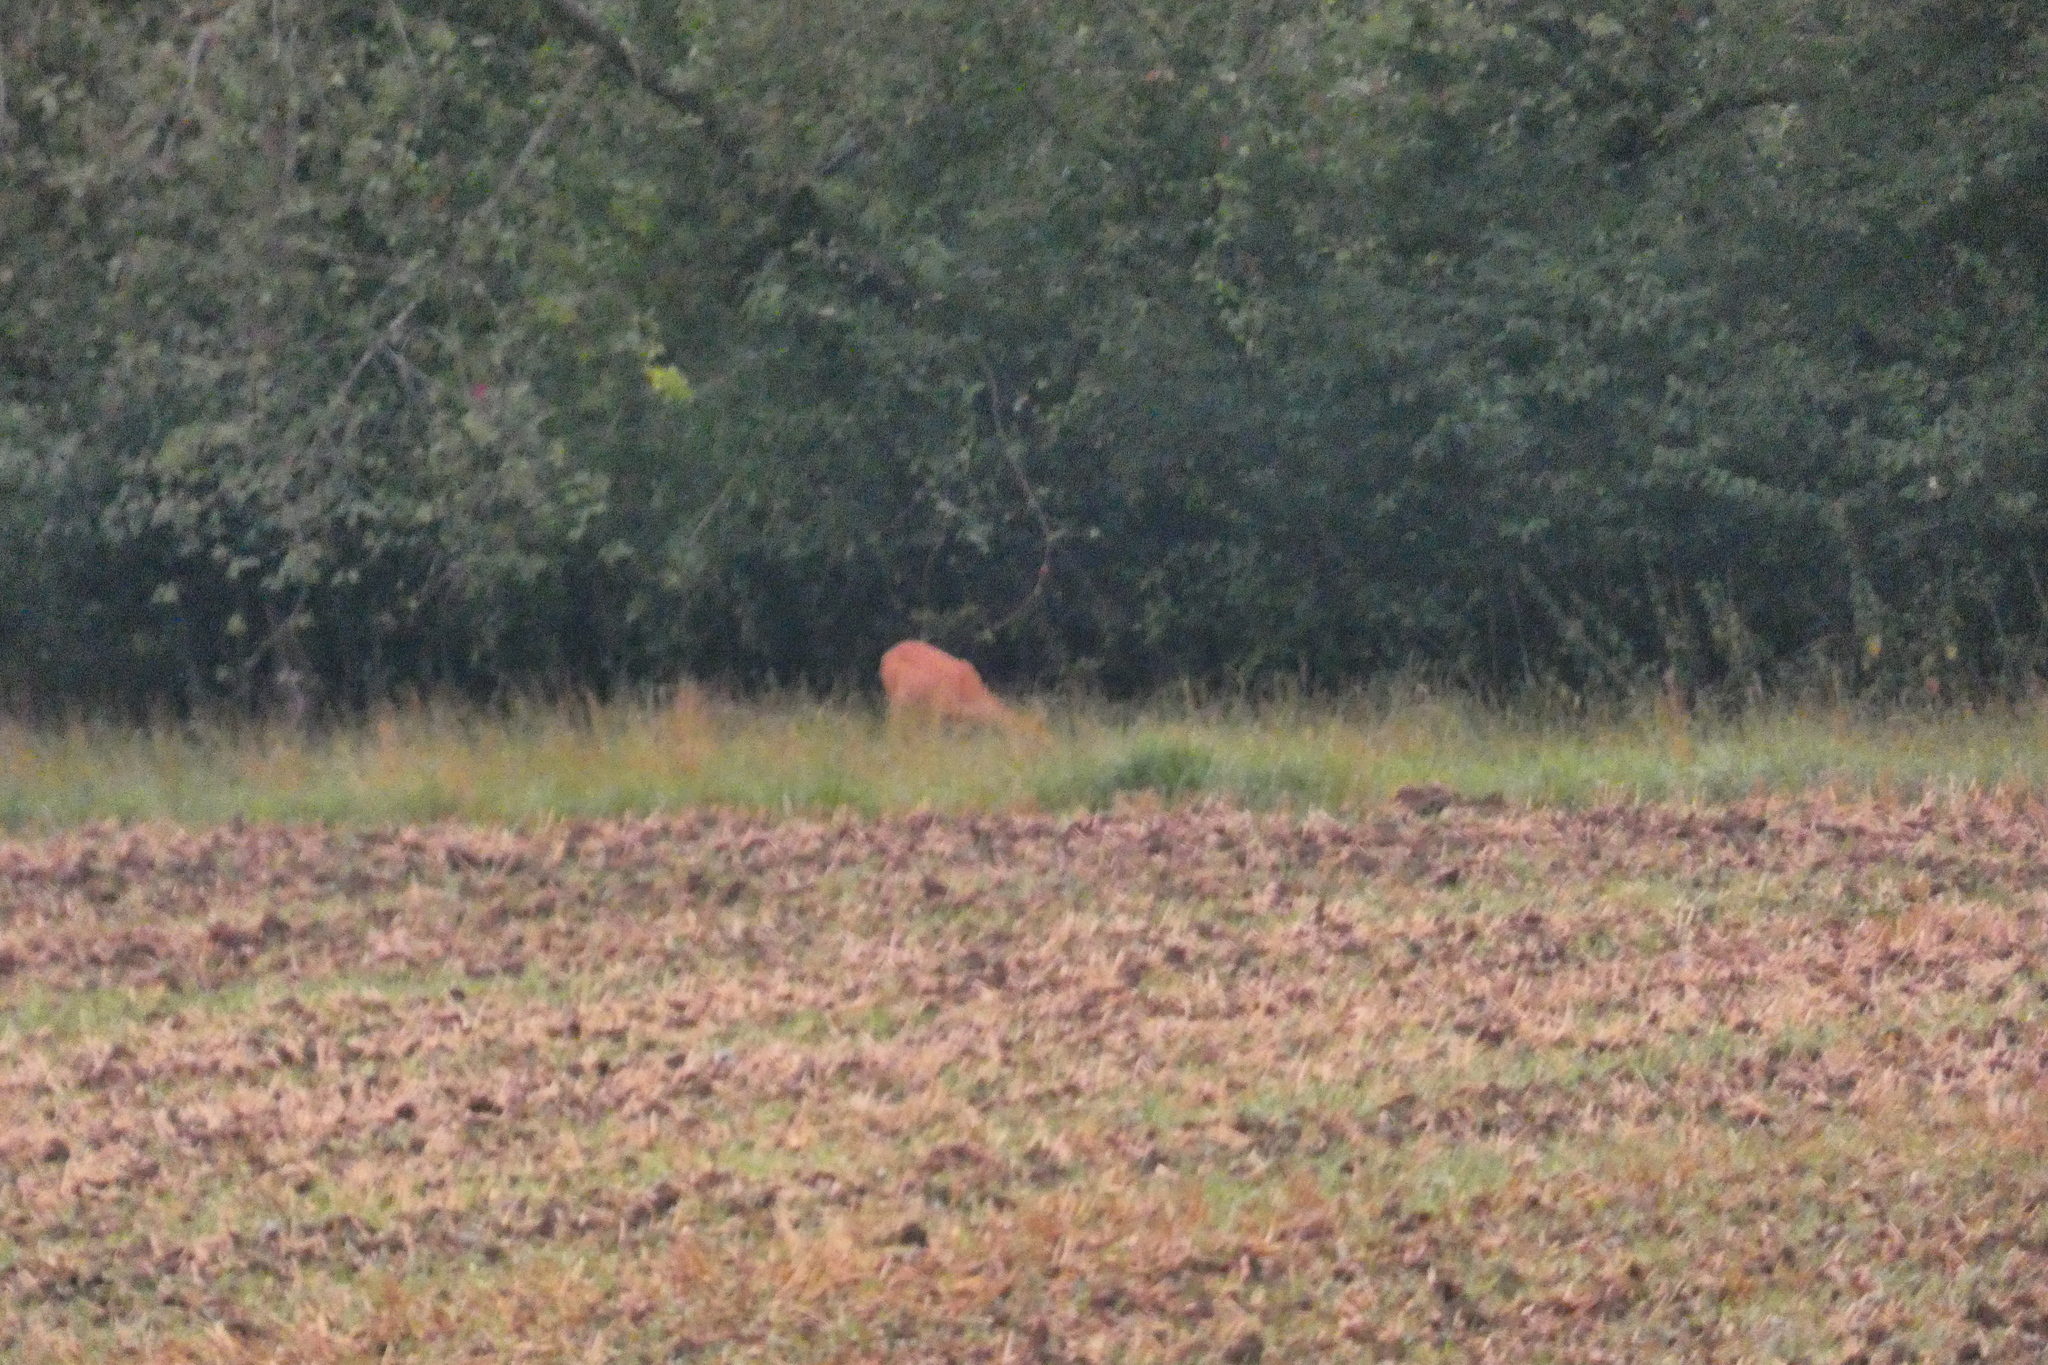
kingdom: Animalia
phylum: Chordata
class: Mammalia
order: Artiodactyla
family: Cervidae
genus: Capreolus
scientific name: Capreolus capreolus
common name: Western roe deer
